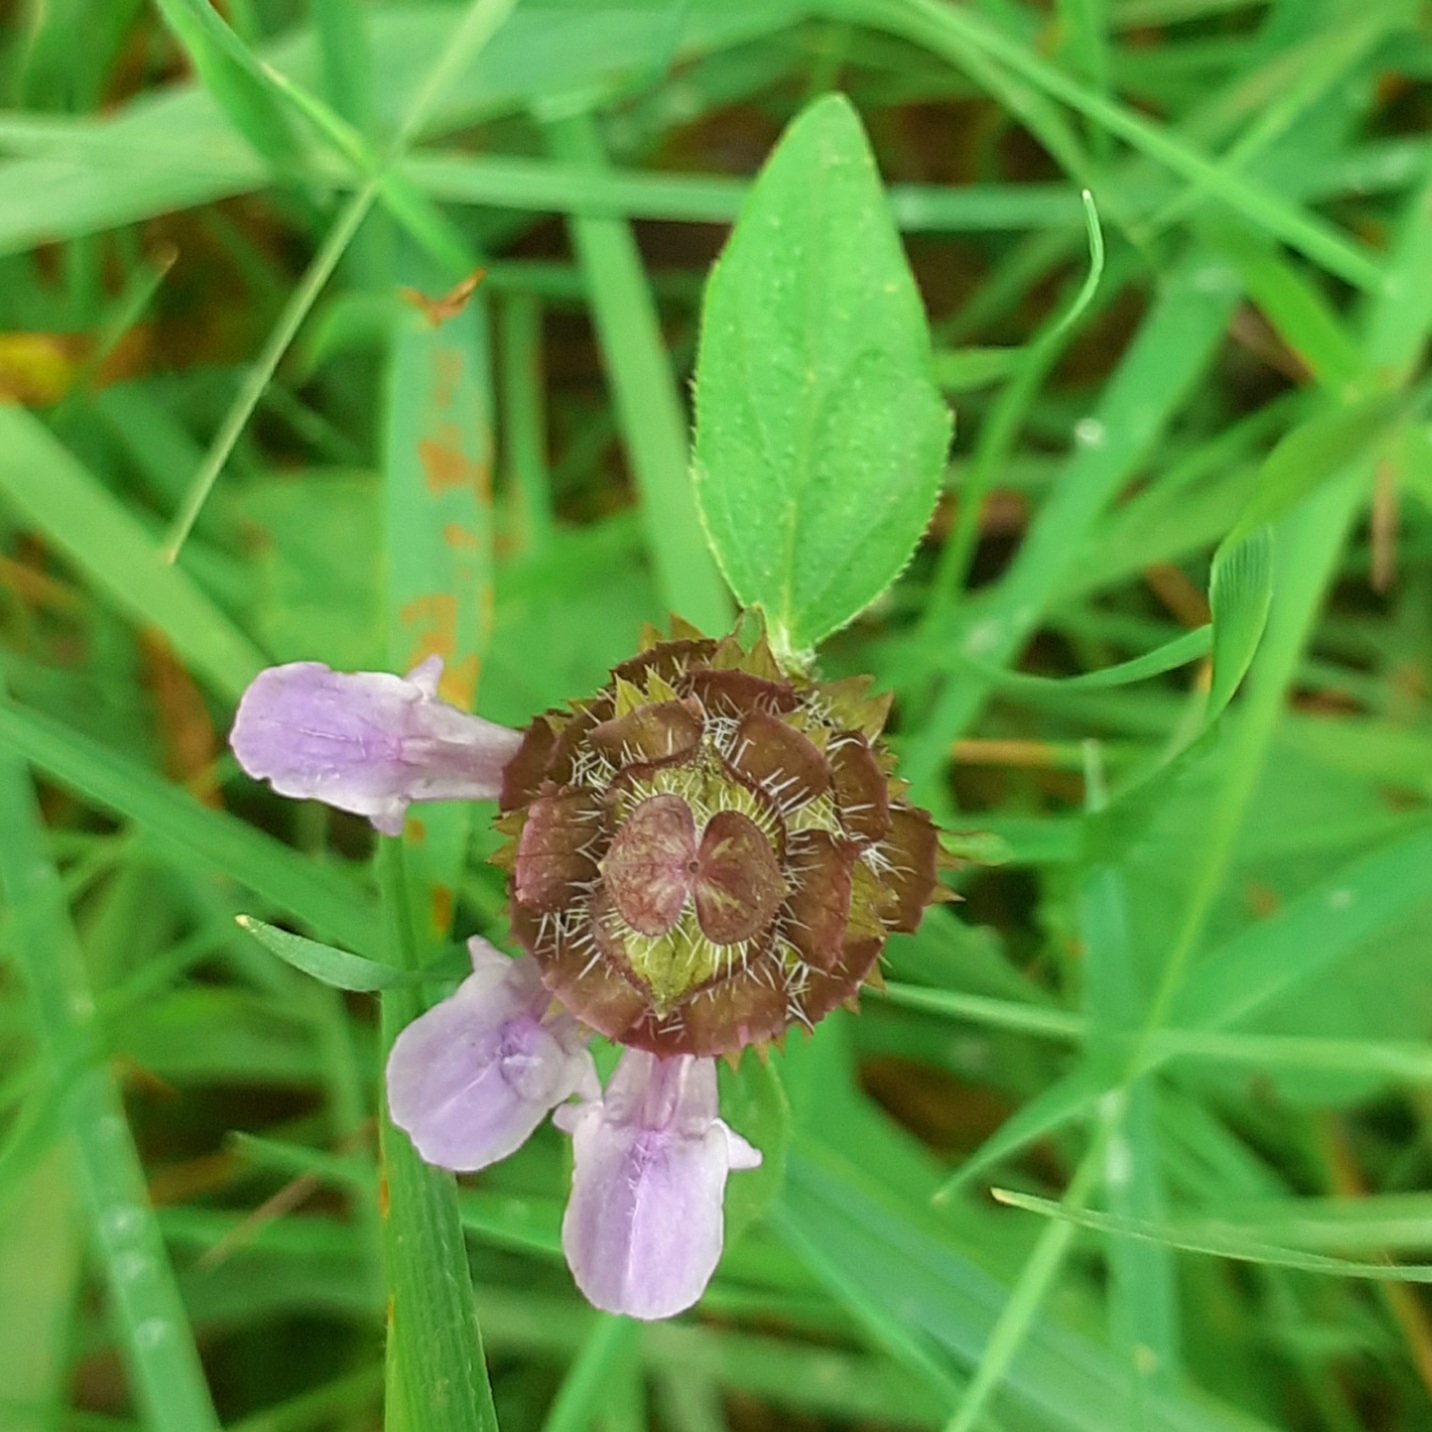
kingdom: Plantae
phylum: Tracheophyta
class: Magnoliopsida
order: Lamiales
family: Lamiaceae
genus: Prunella
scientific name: Prunella vulgaris
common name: Heal-all
